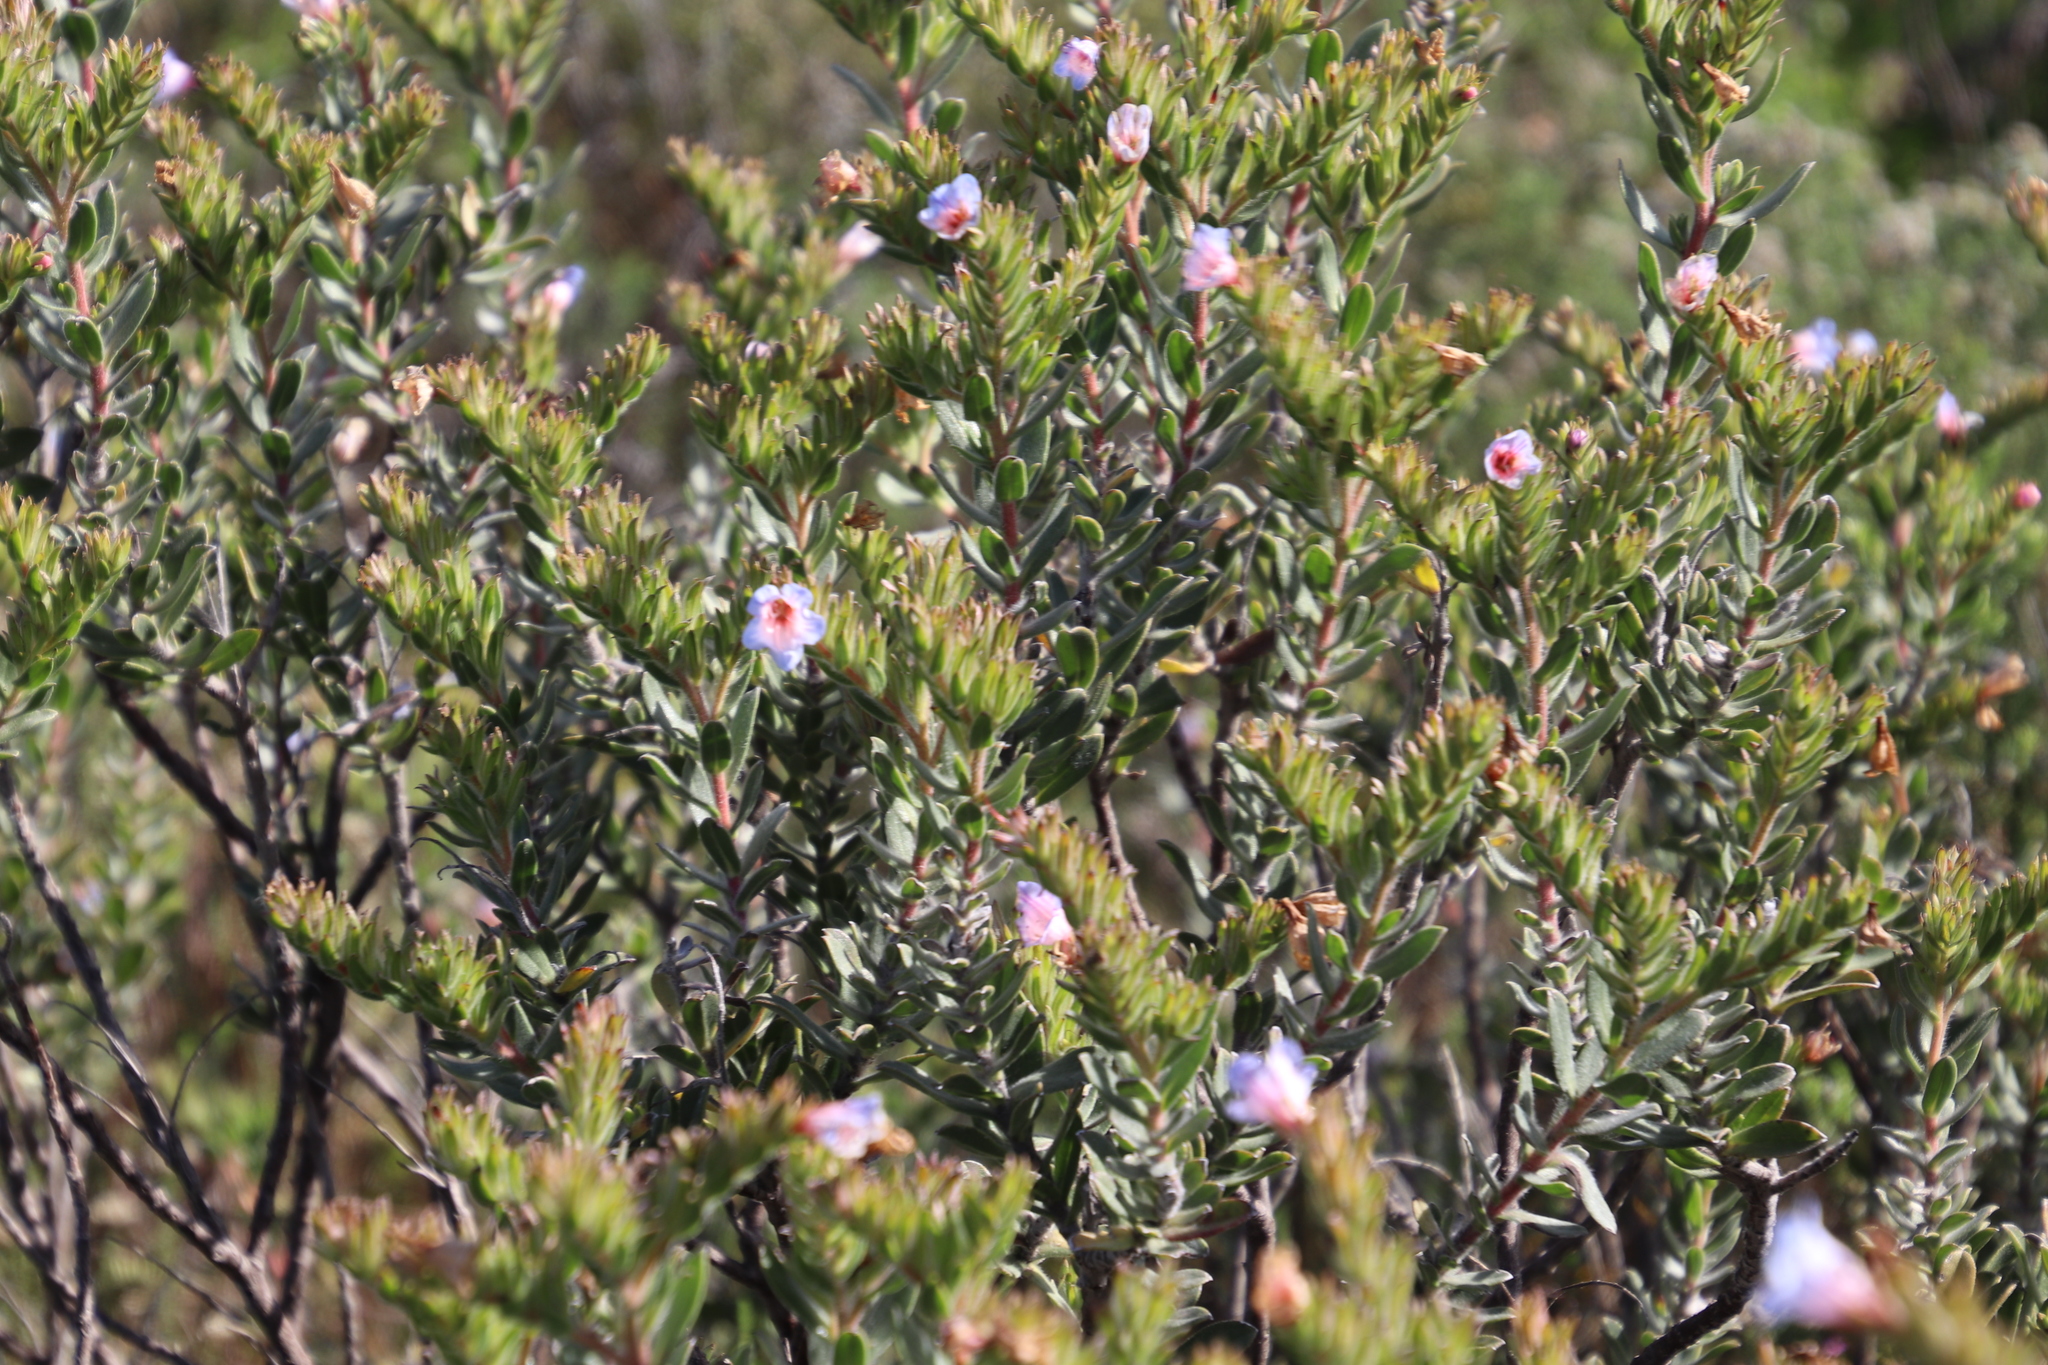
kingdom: Plantae
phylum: Tracheophyta
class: Magnoliopsida
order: Boraginales
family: Boraginaceae
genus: Lobostemon
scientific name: Lobostemon fruticosus
